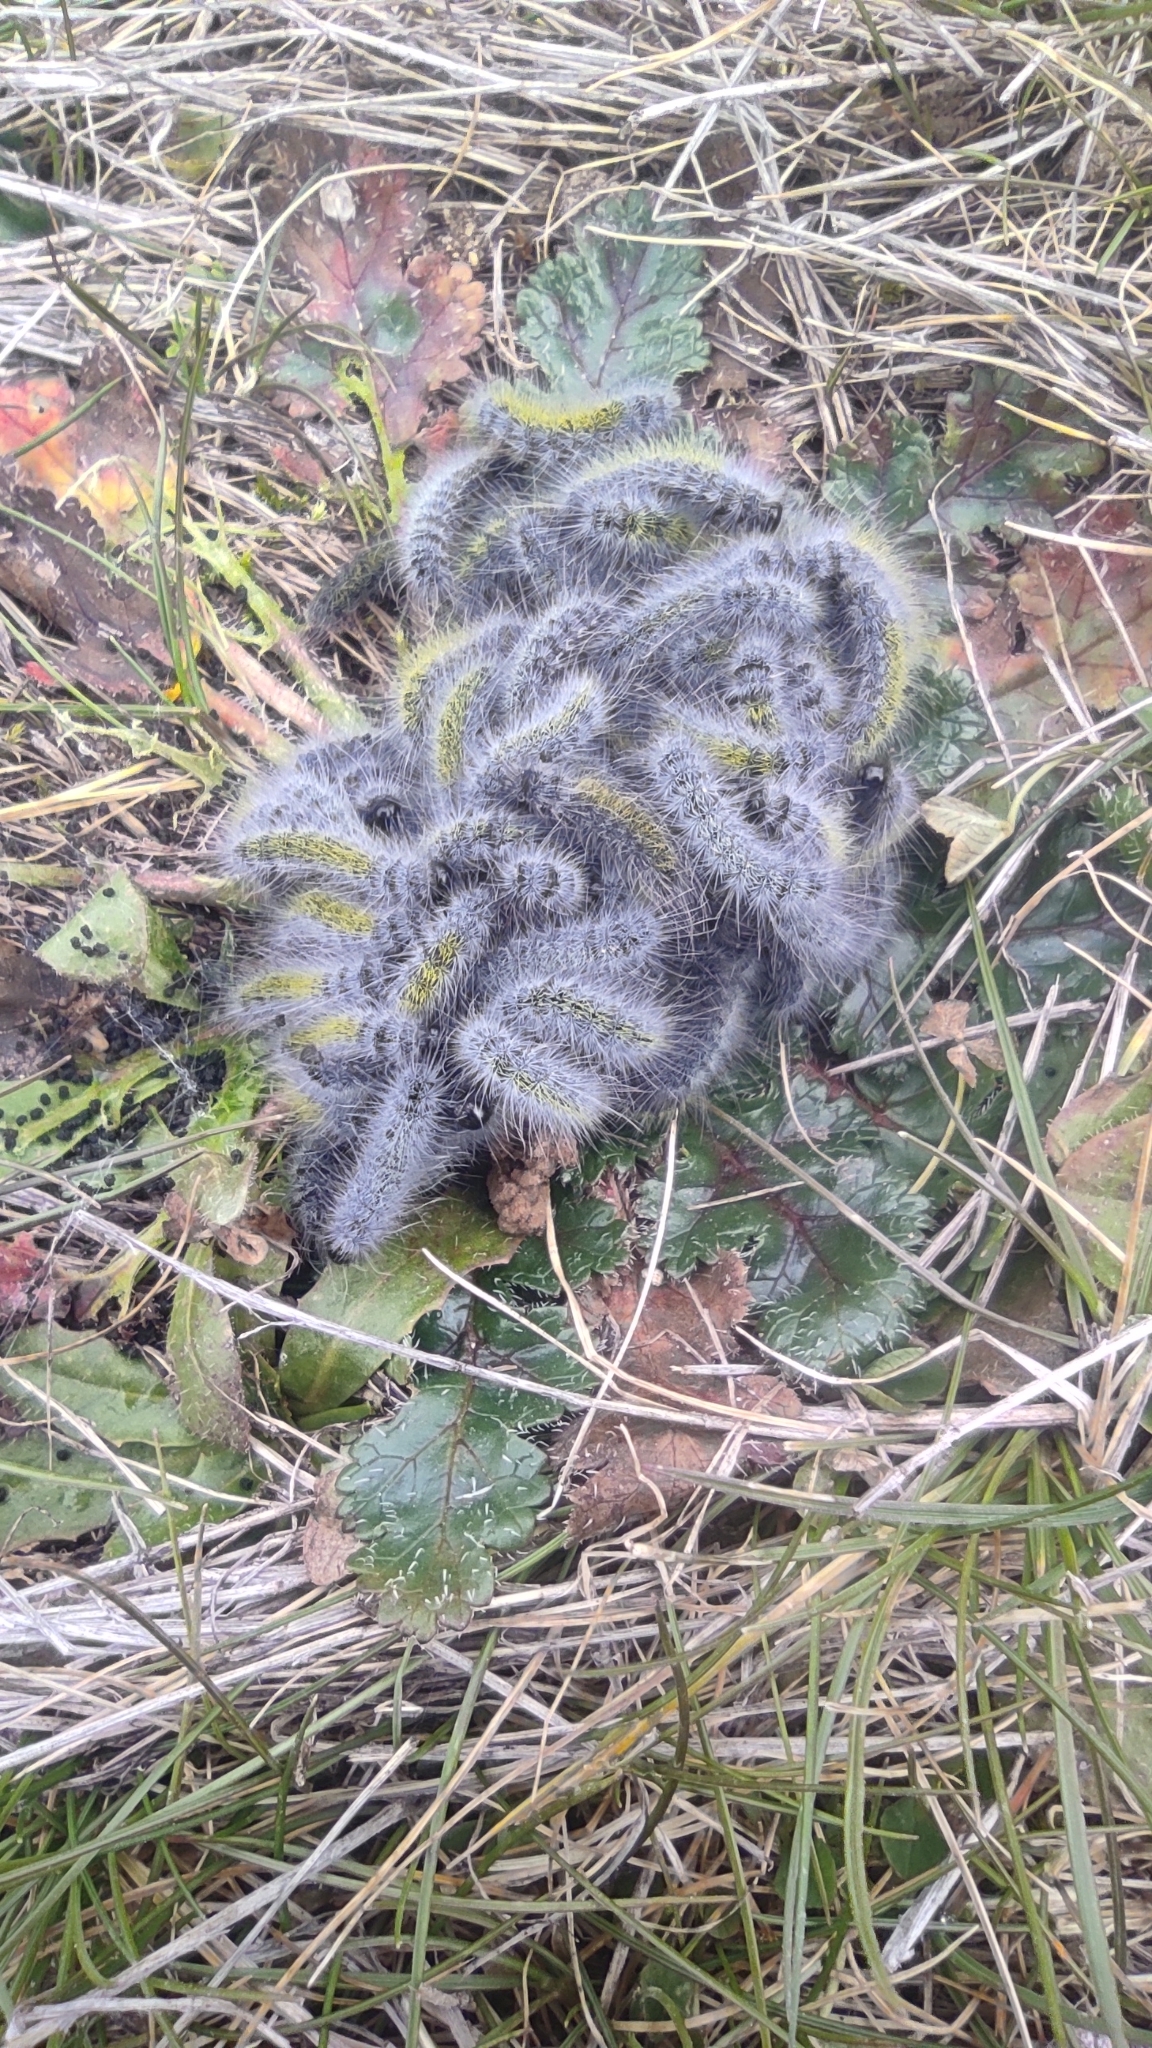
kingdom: Animalia
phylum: Arthropoda
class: Insecta
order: Lepidoptera
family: Notodontidae
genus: Thaumetopoea
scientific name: Thaumetopoea herculeana
